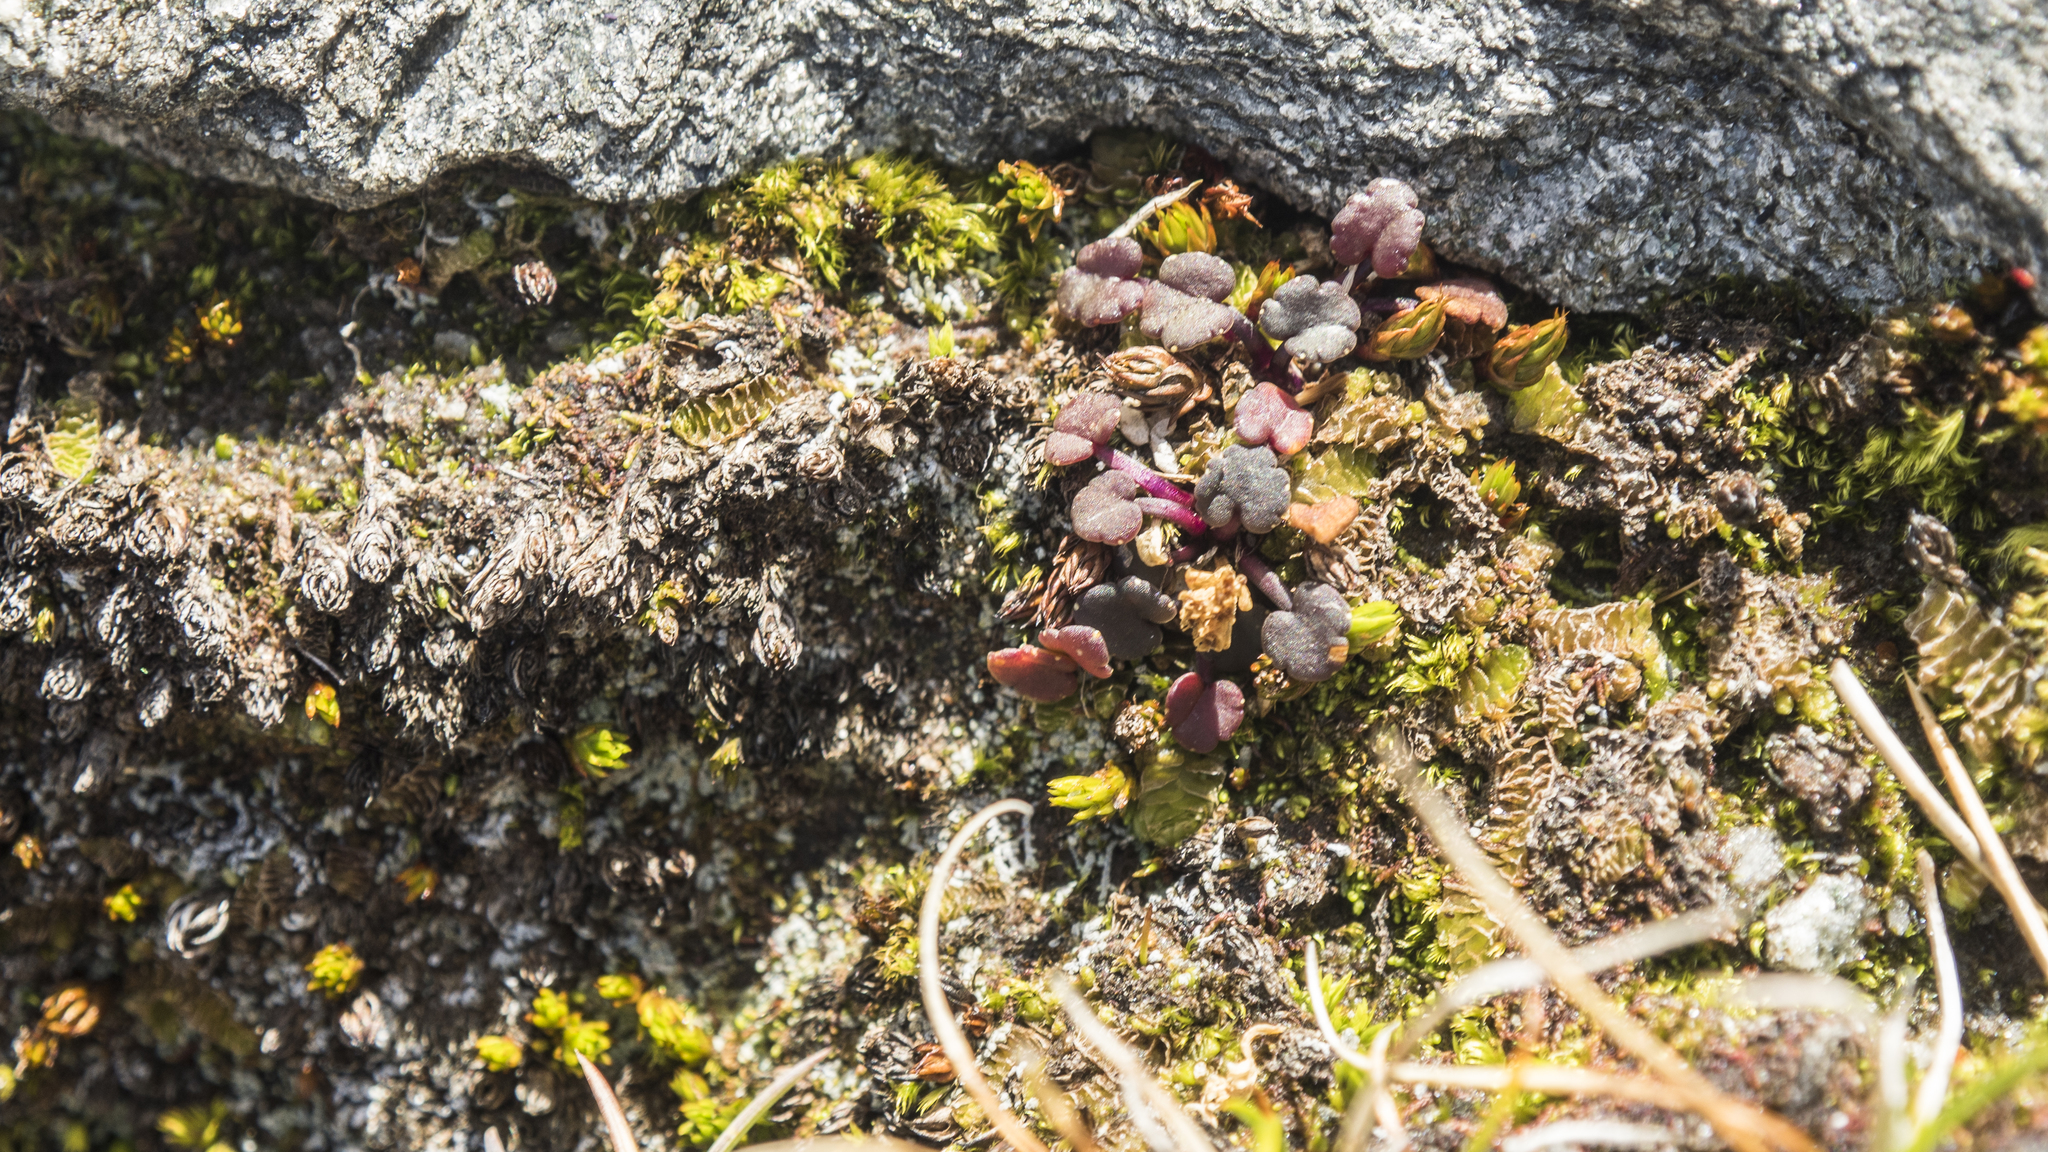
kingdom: Plantae
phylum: Tracheophyta
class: Magnoliopsida
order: Apiales
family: Apiaceae
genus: Azorella
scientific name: Azorella exigua
